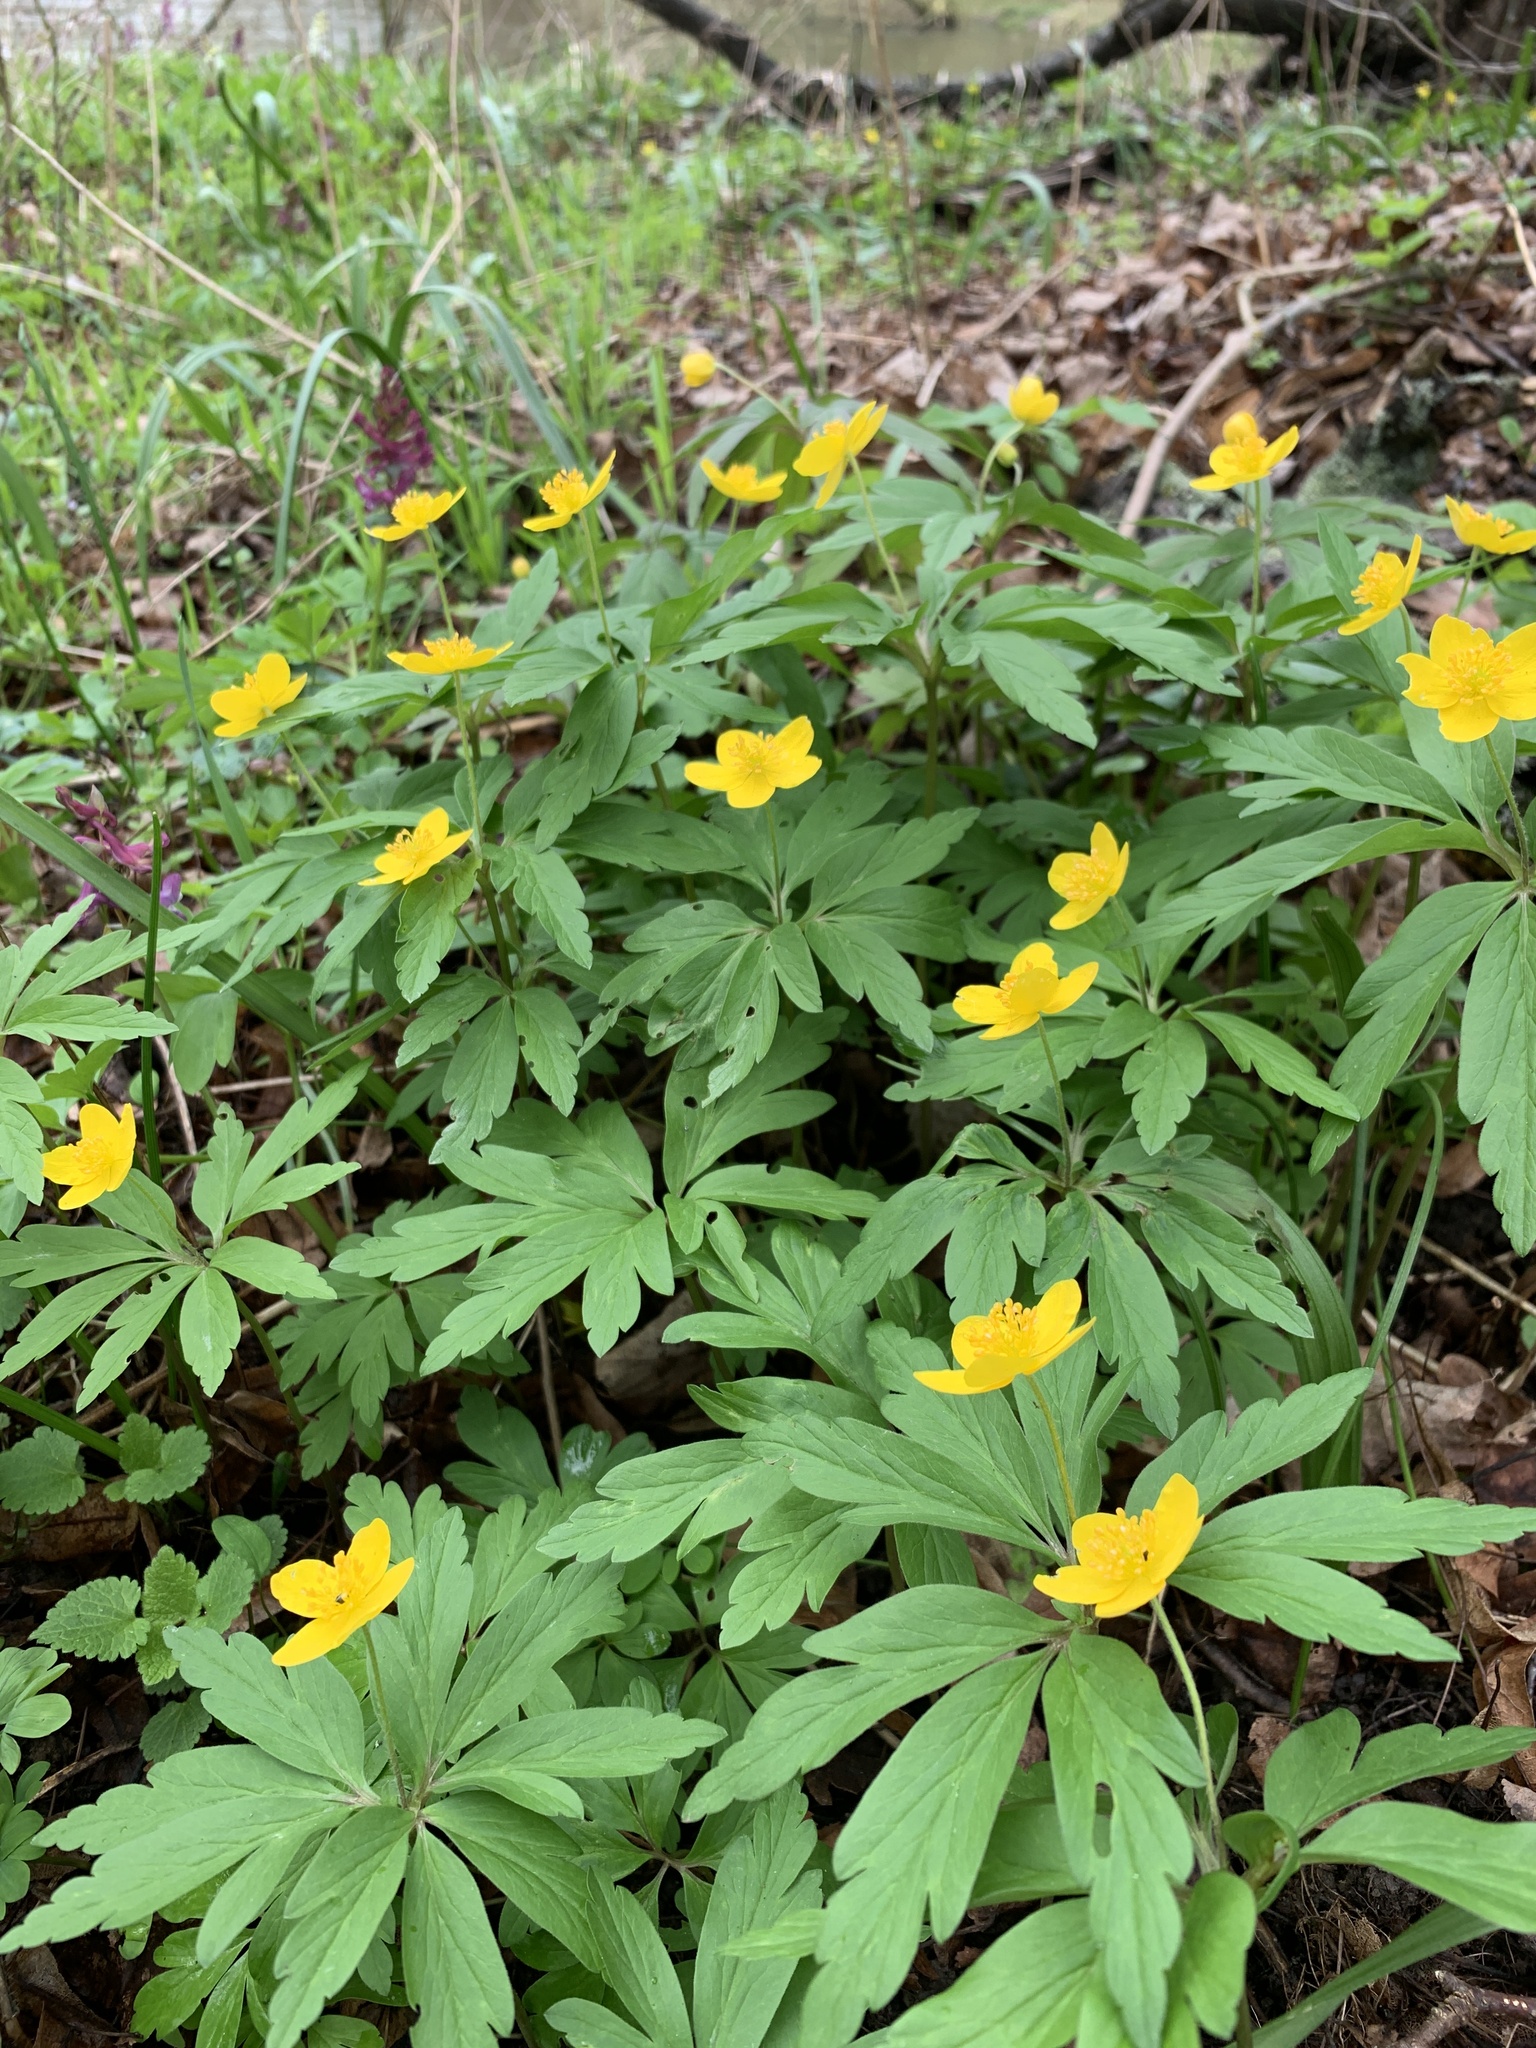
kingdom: Plantae
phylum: Tracheophyta
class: Magnoliopsida
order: Ranunculales
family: Ranunculaceae
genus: Anemone
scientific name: Anemone ranunculoides
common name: Yellow anemone
